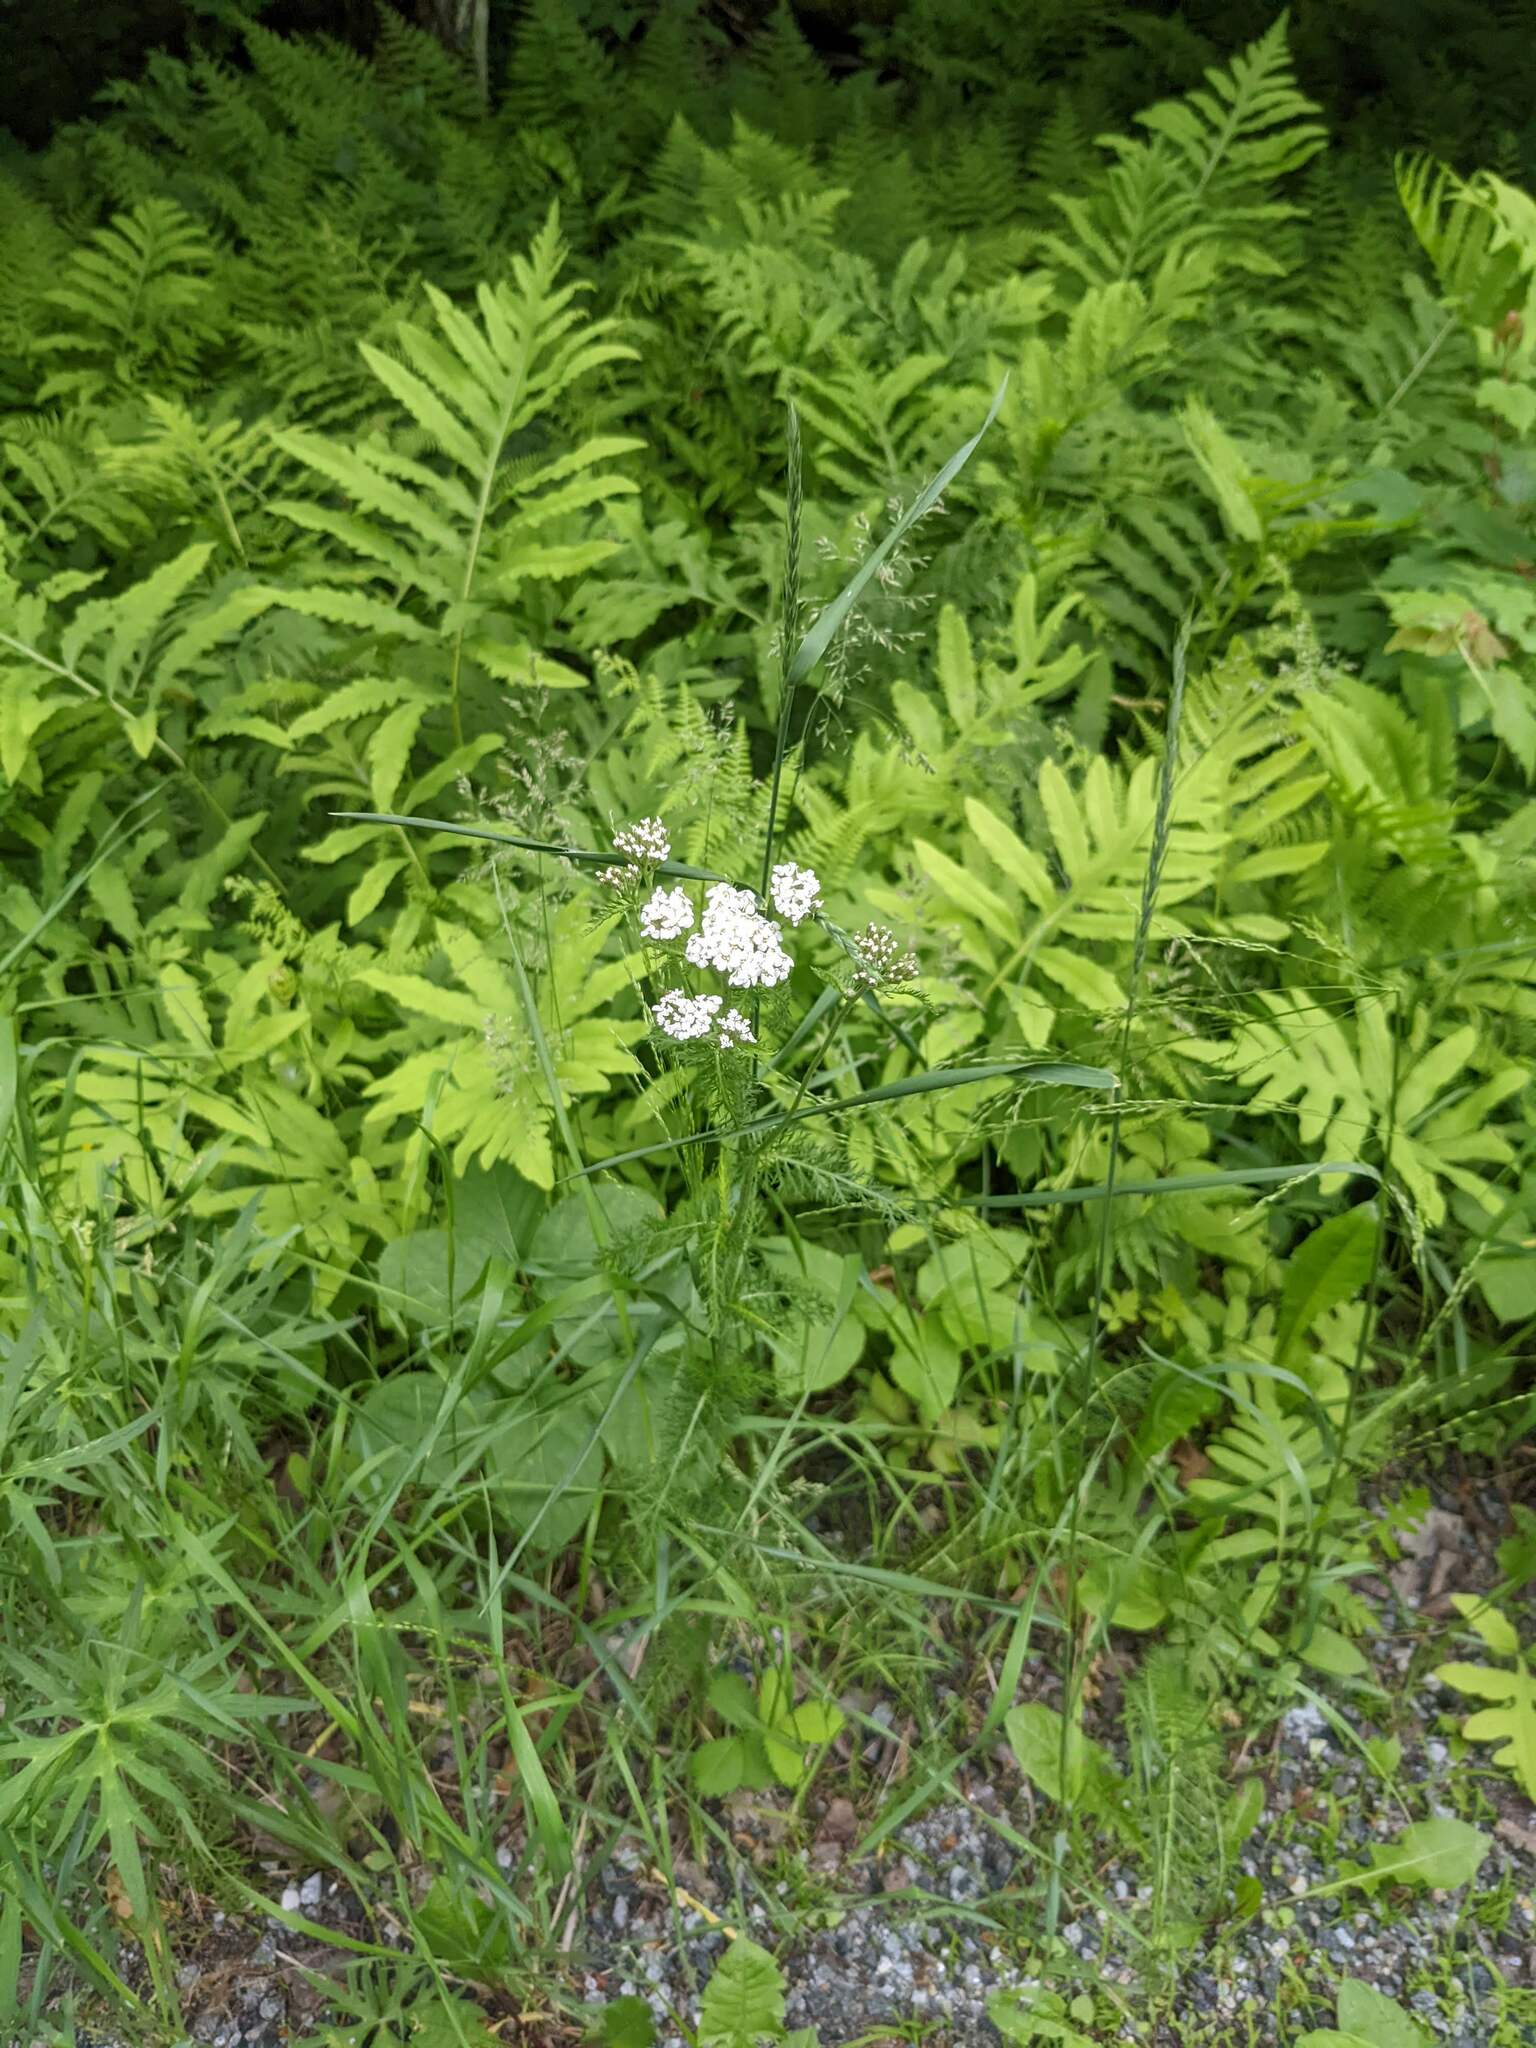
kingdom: Plantae
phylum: Tracheophyta
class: Magnoliopsida
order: Asterales
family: Asteraceae
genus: Achillea
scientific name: Achillea millefolium
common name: Yarrow
